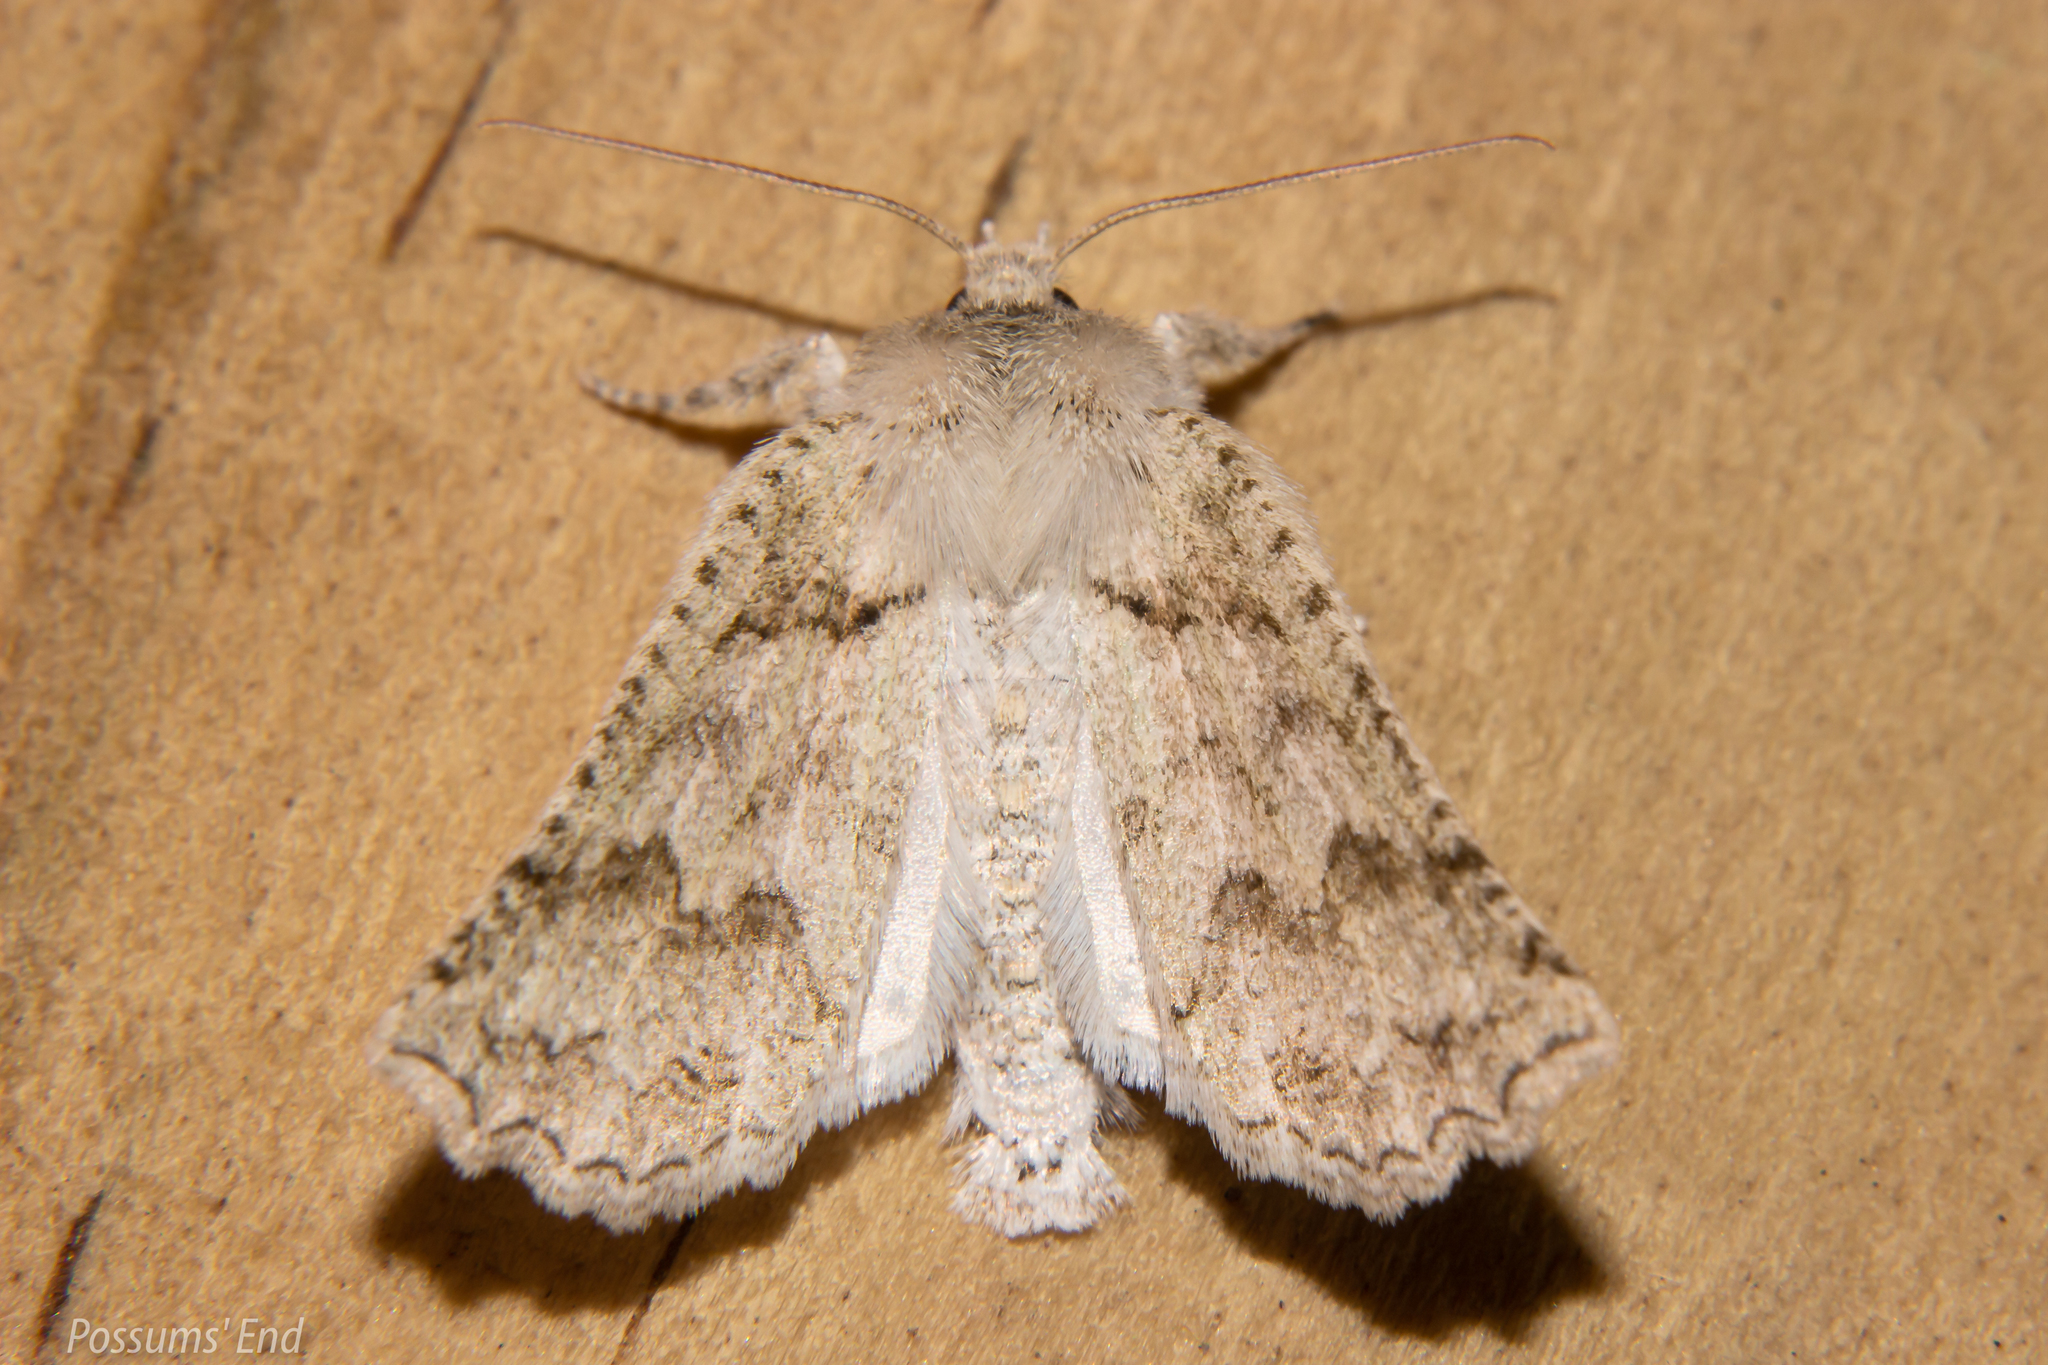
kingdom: Animalia
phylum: Arthropoda
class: Insecta
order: Lepidoptera
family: Geometridae
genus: Declana
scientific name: Declana niveata
